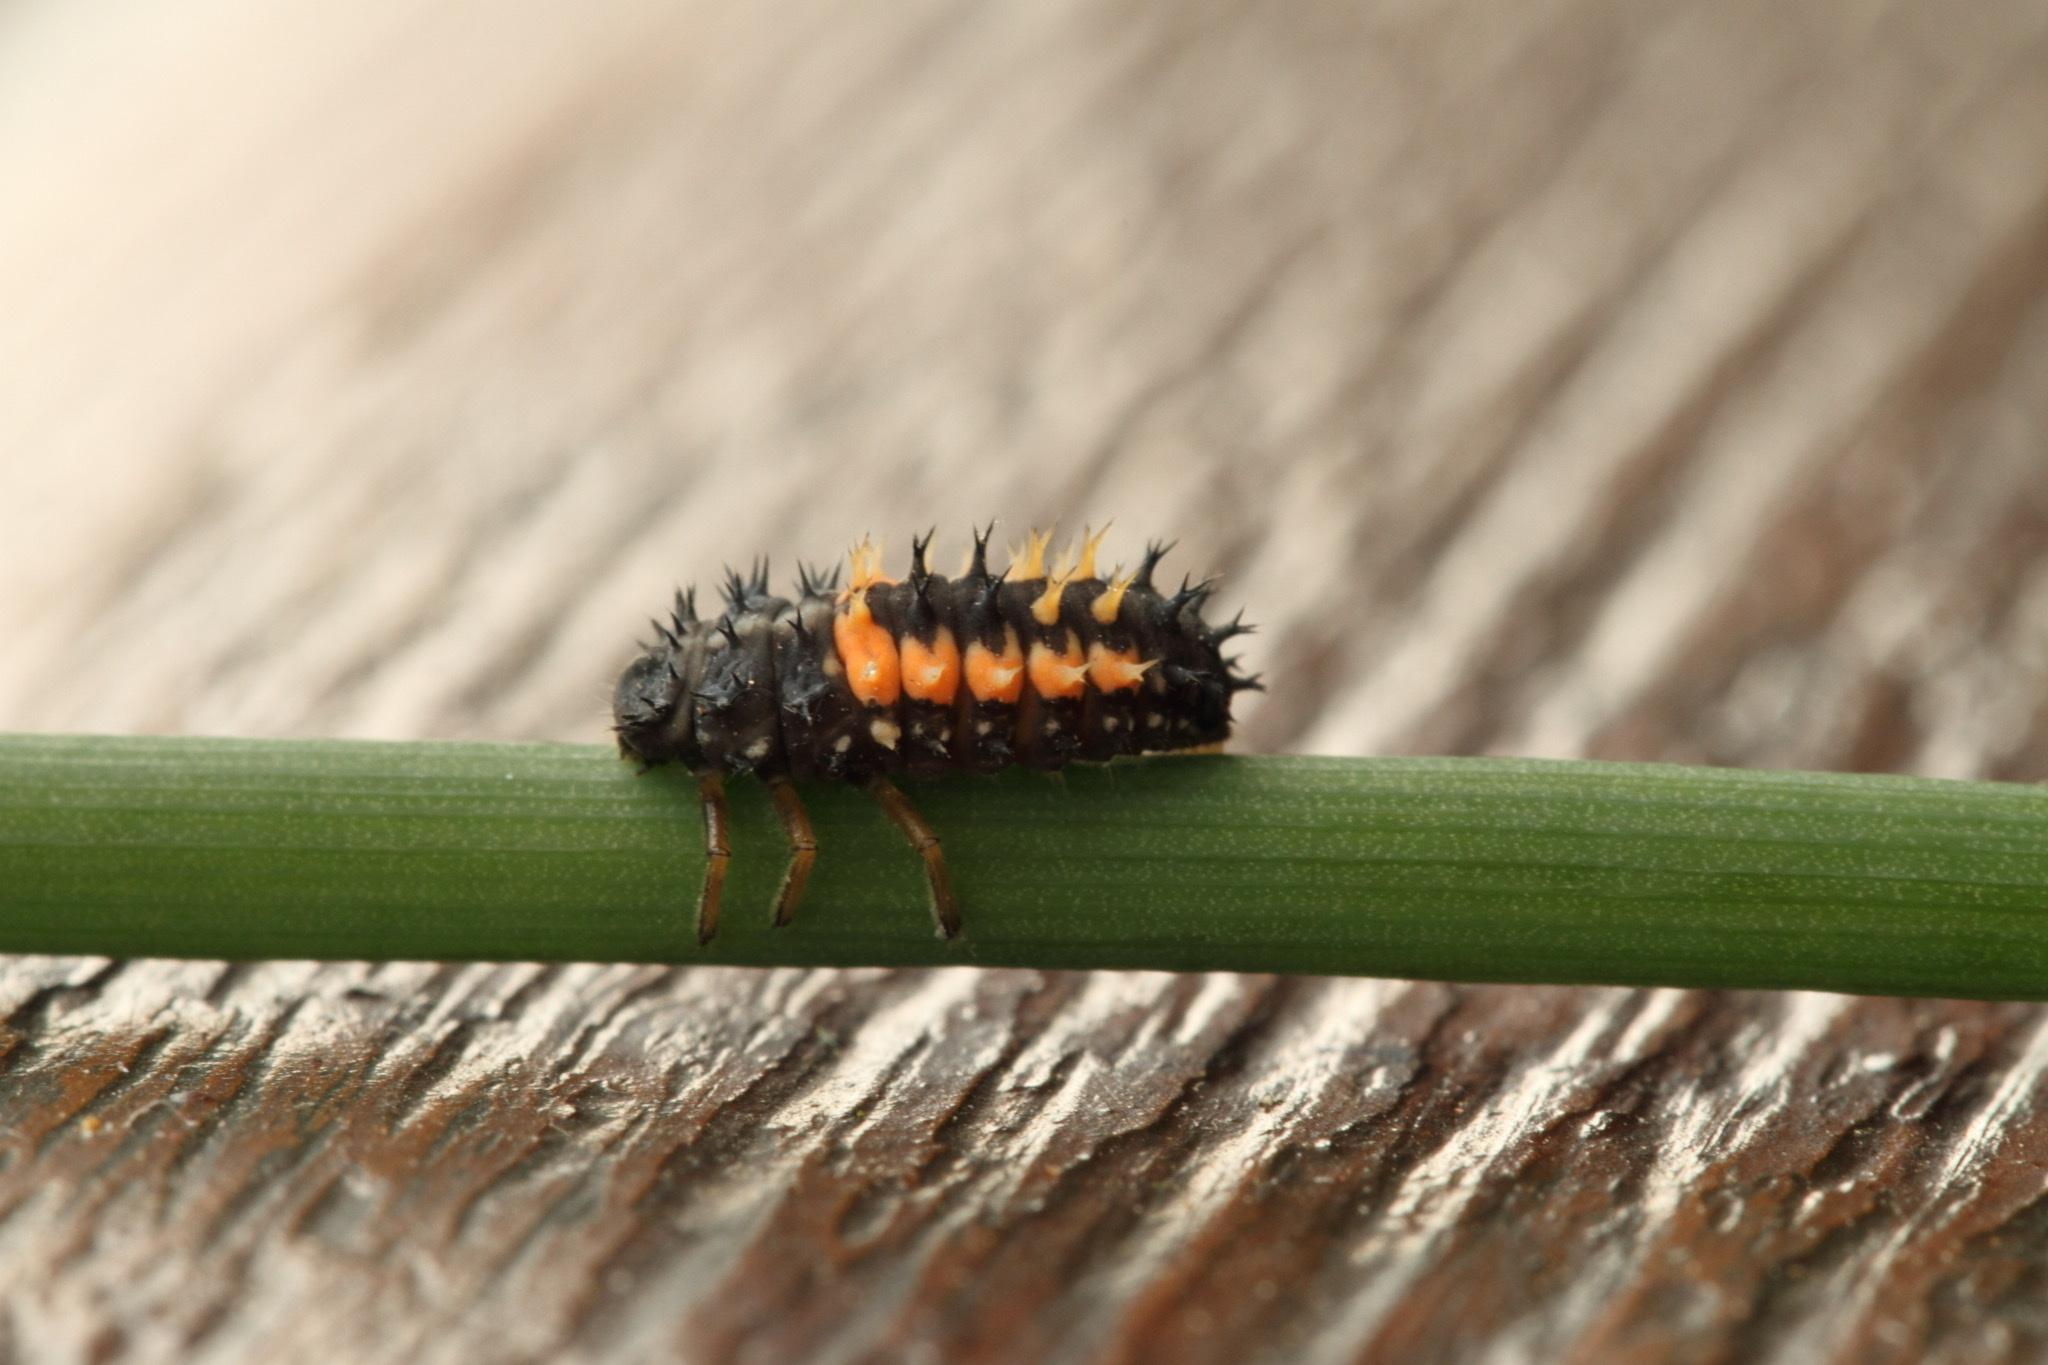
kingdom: Animalia
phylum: Arthropoda
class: Insecta
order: Coleoptera
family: Coccinellidae
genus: Harmonia
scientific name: Harmonia axyridis
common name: Harlequin ladybird
